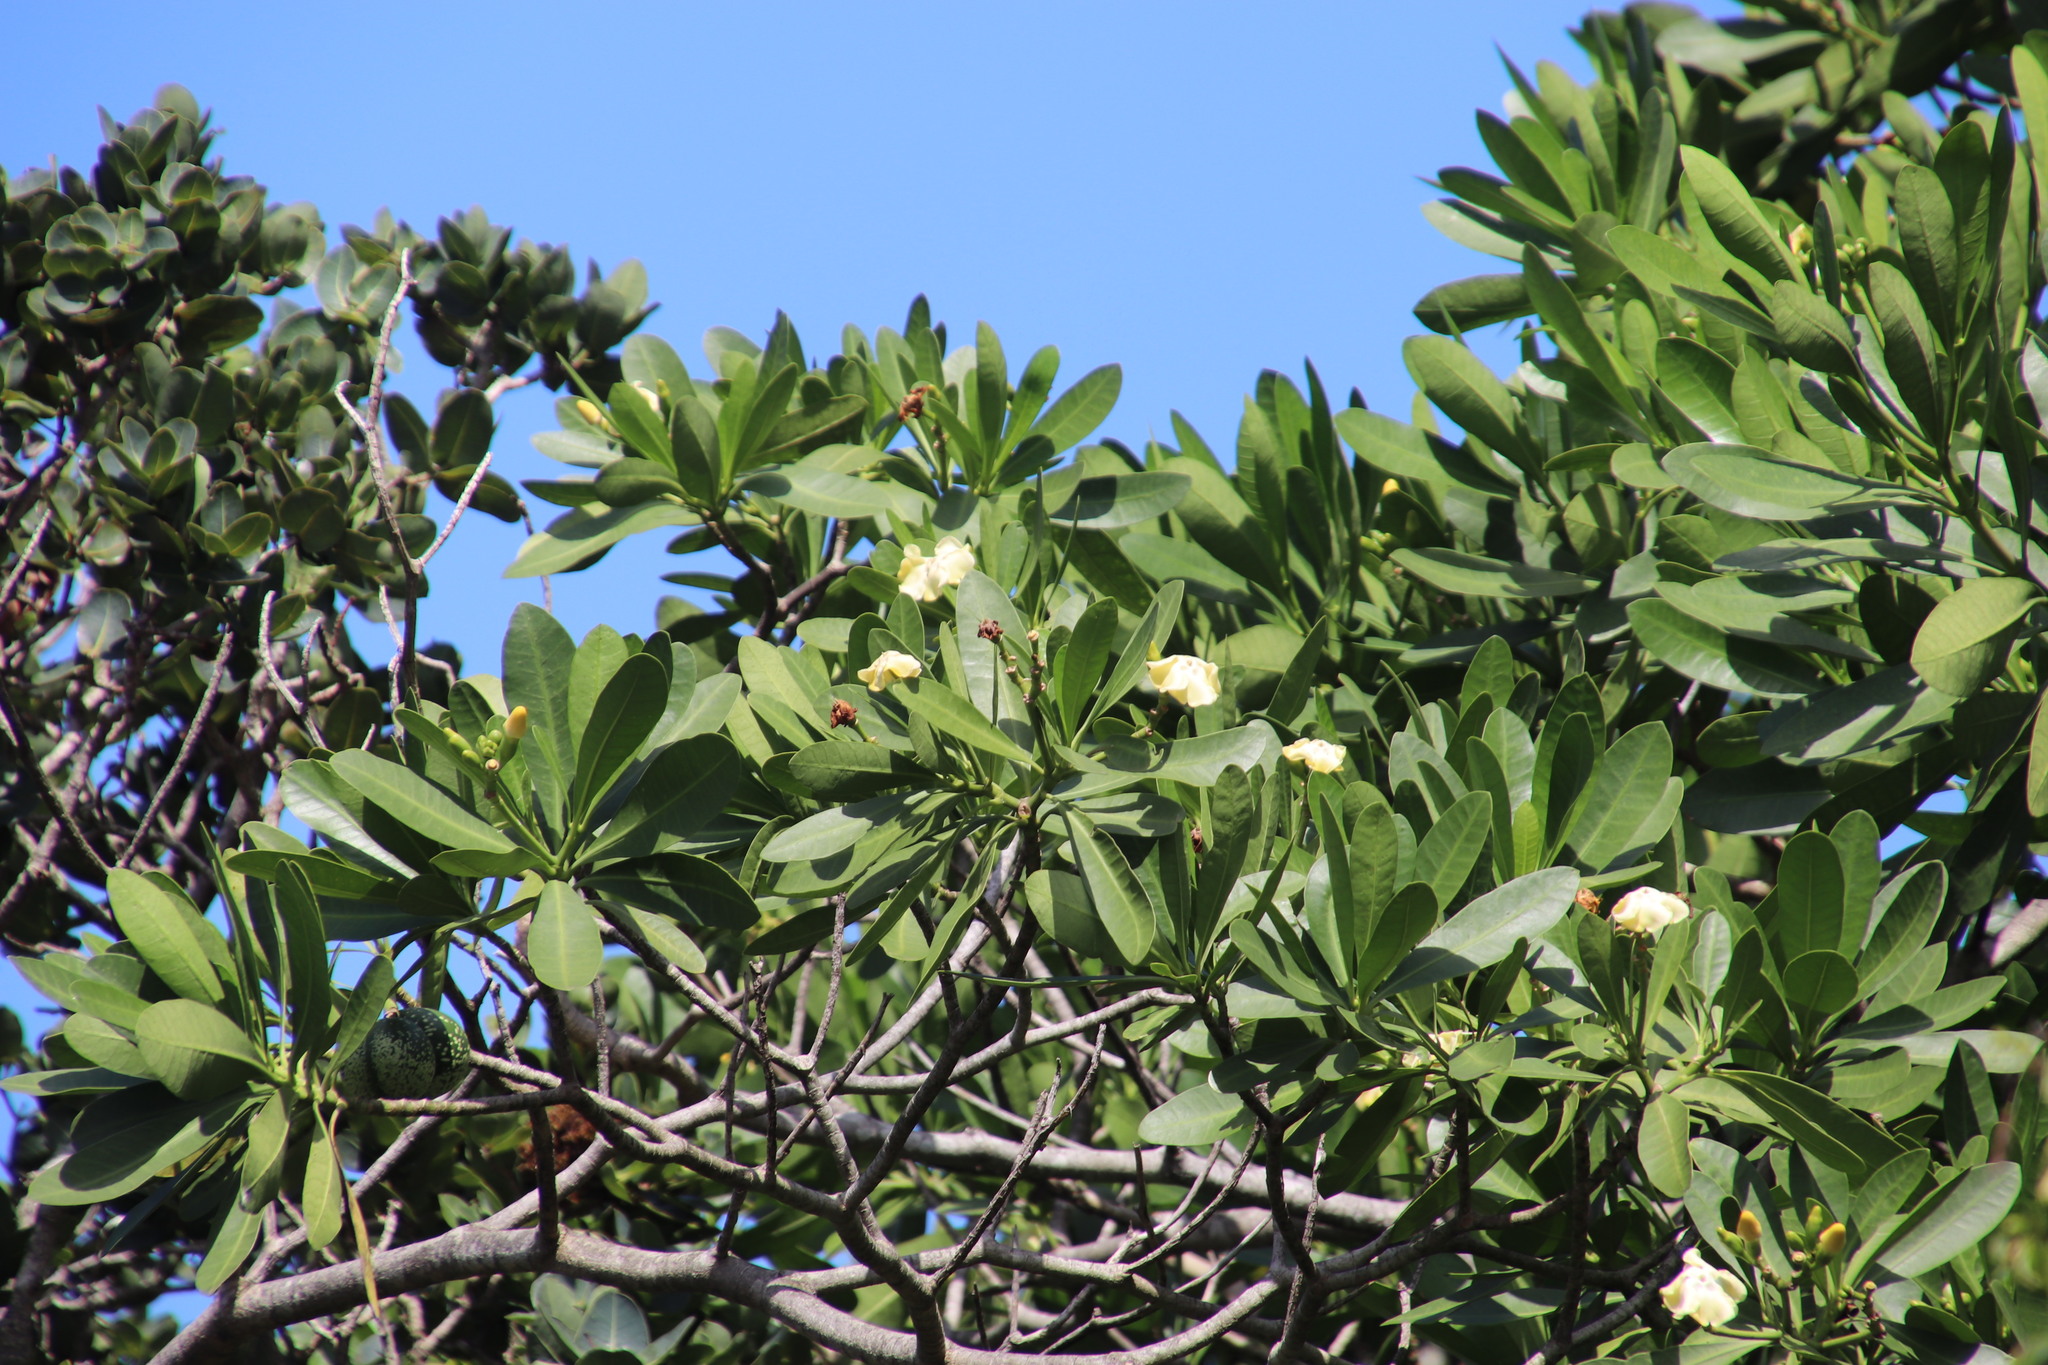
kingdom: Plantae
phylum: Tracheophyta
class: Magnoliopsida
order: Gentianales
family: Apocynaceae
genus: Voacanga
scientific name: Voacanga thouarsii
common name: Wild frangipani
